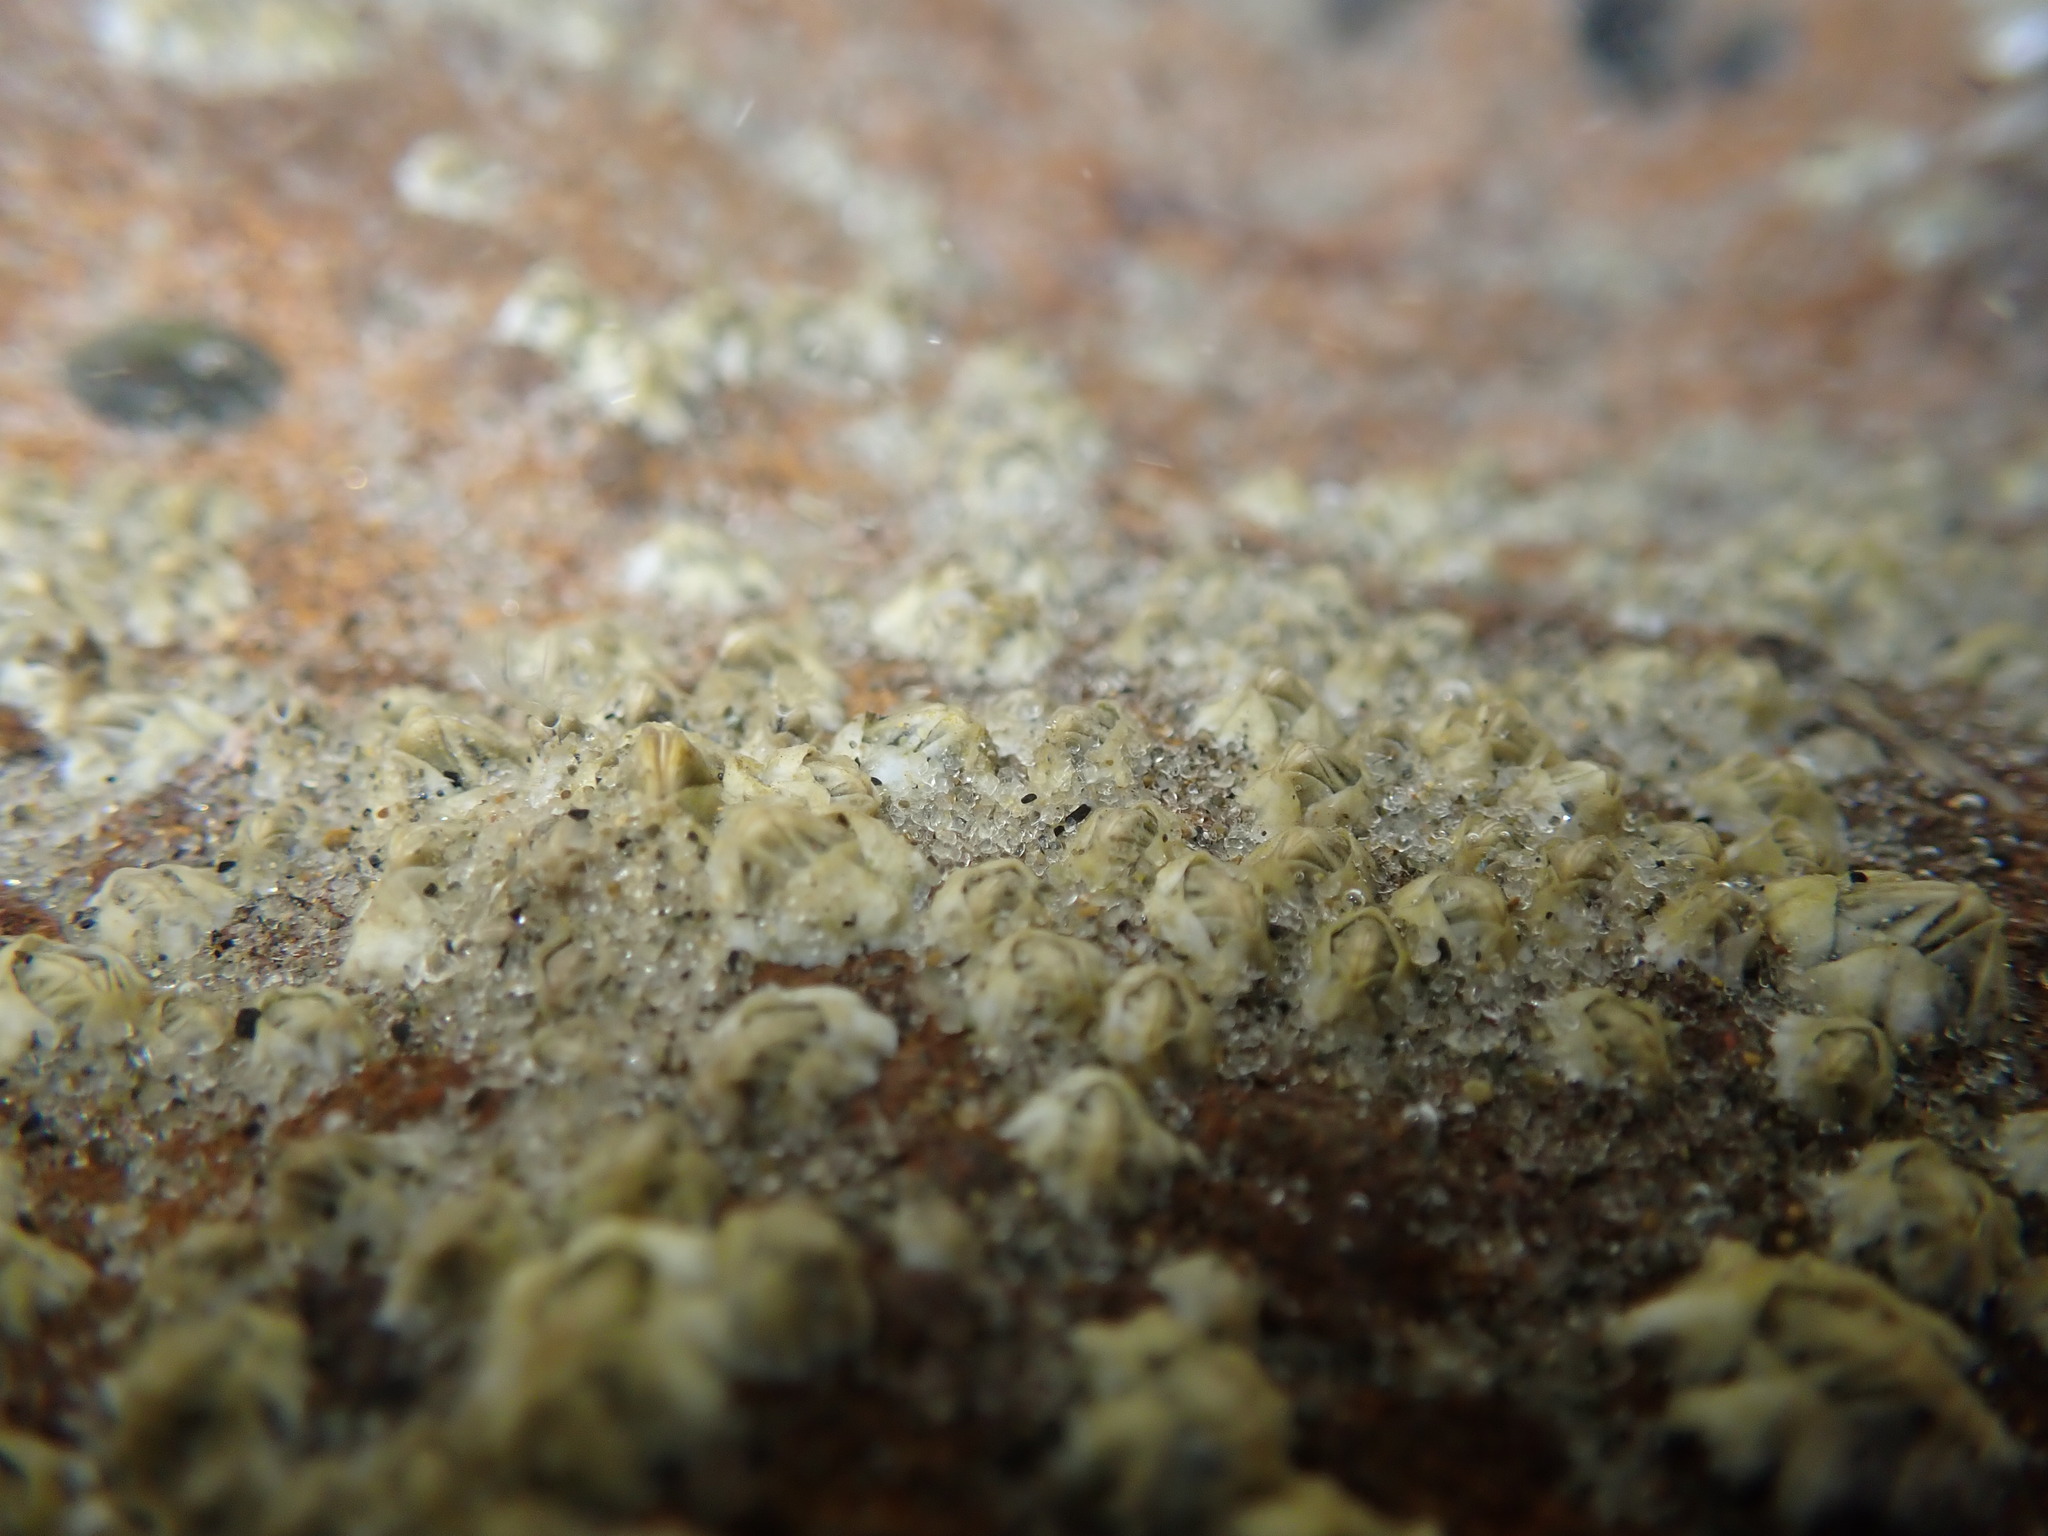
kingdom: Animalia
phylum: Arthropoda
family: Elminiidae
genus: Austrominius
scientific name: Austrominius modestus
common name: Australasian barnacle
